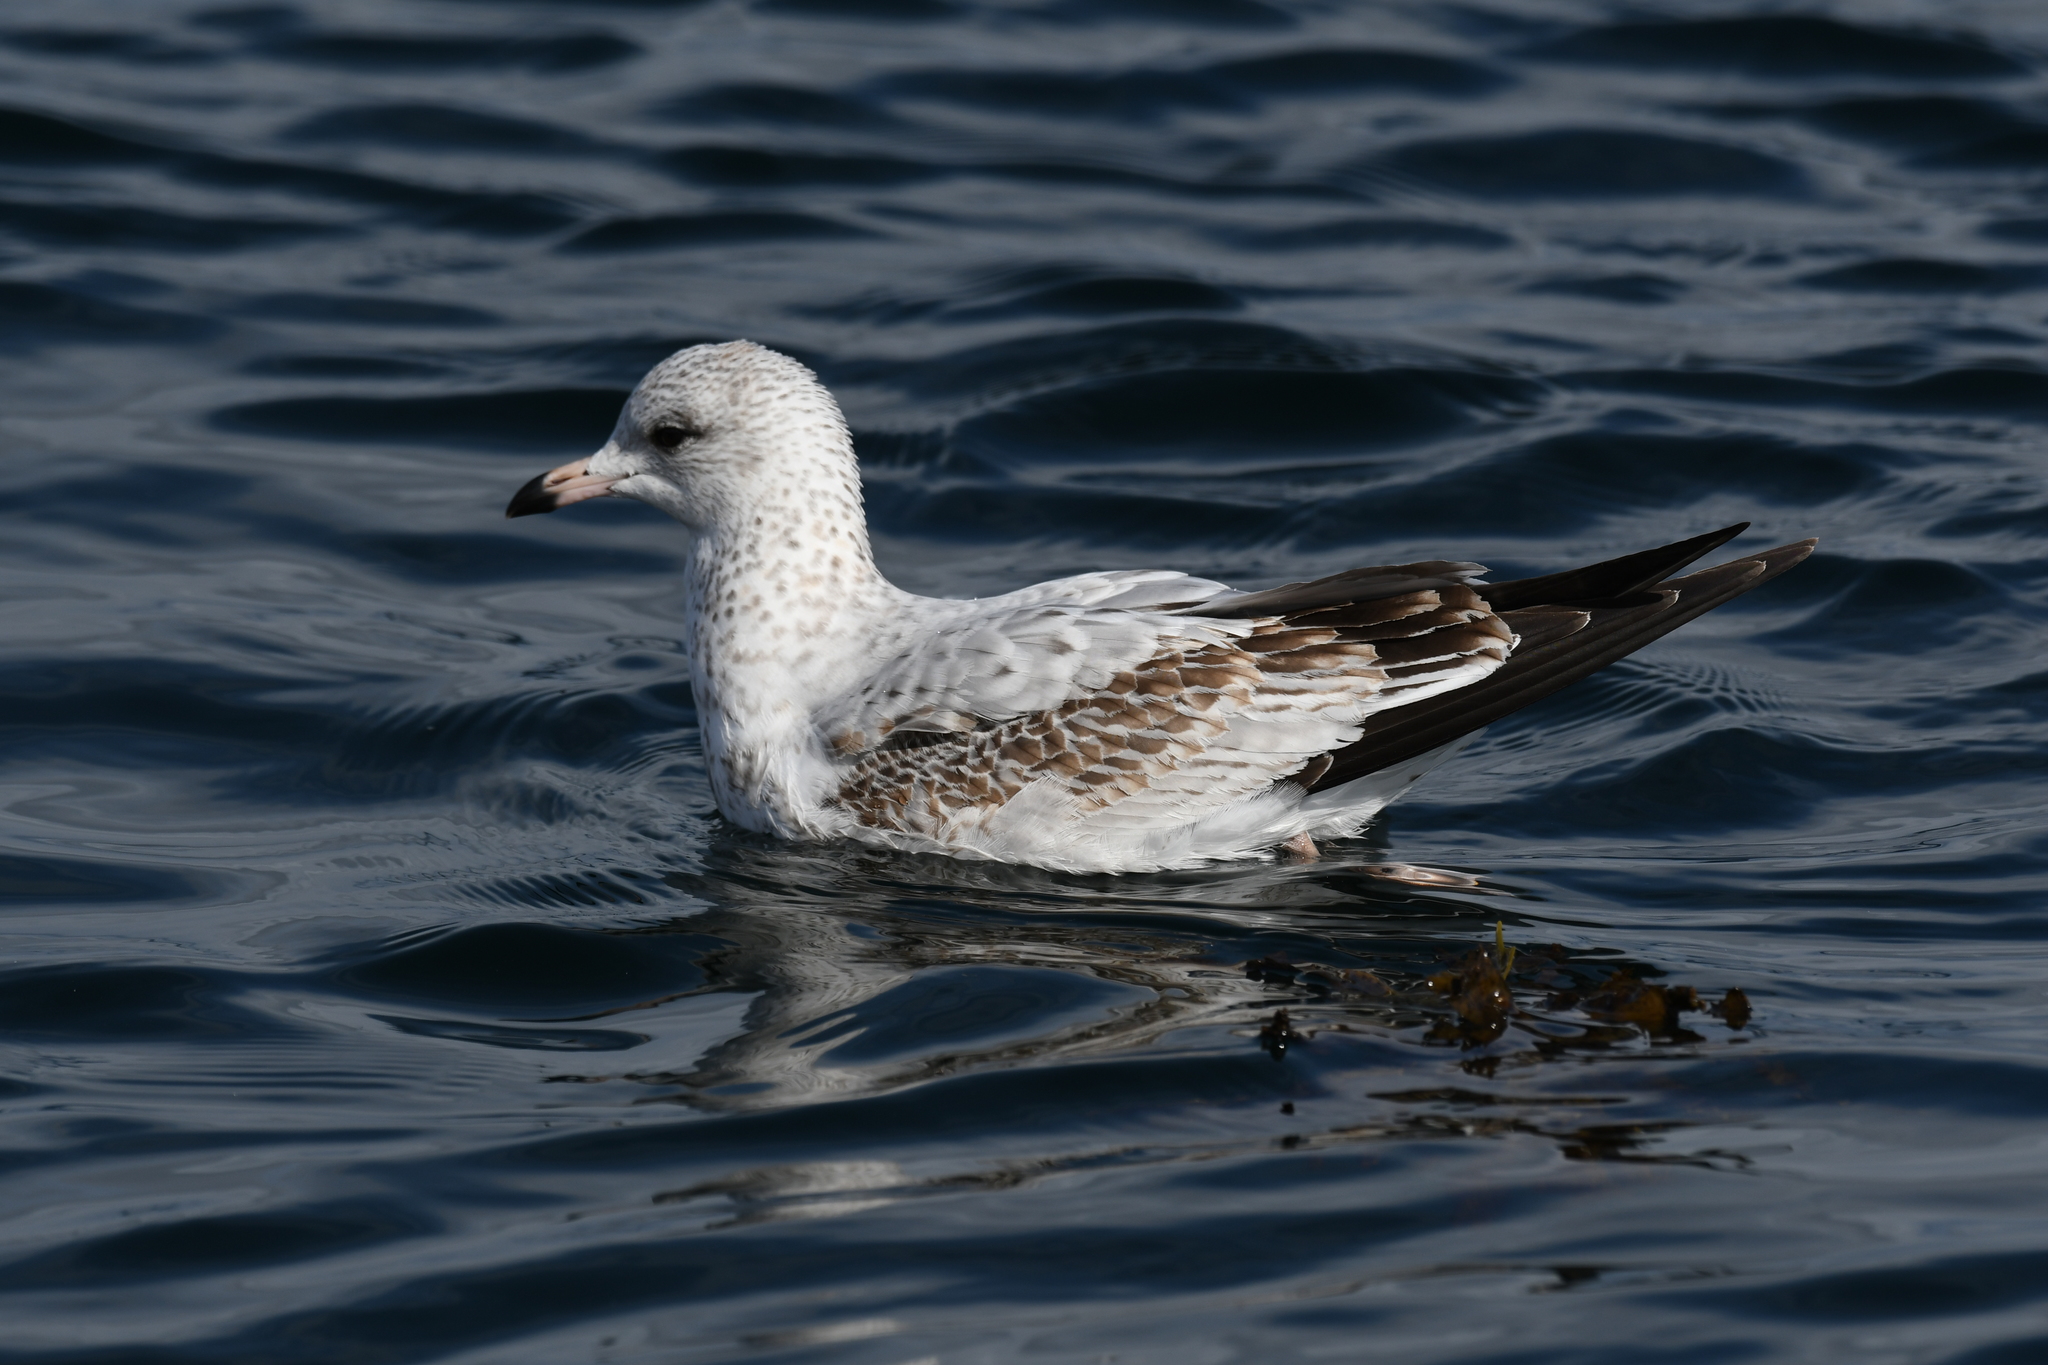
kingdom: Animalia
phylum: Chordata
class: Aves
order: Charadriiformes
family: Laridae
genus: Larus
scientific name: Larus delawarensis
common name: Ring-billed gull
